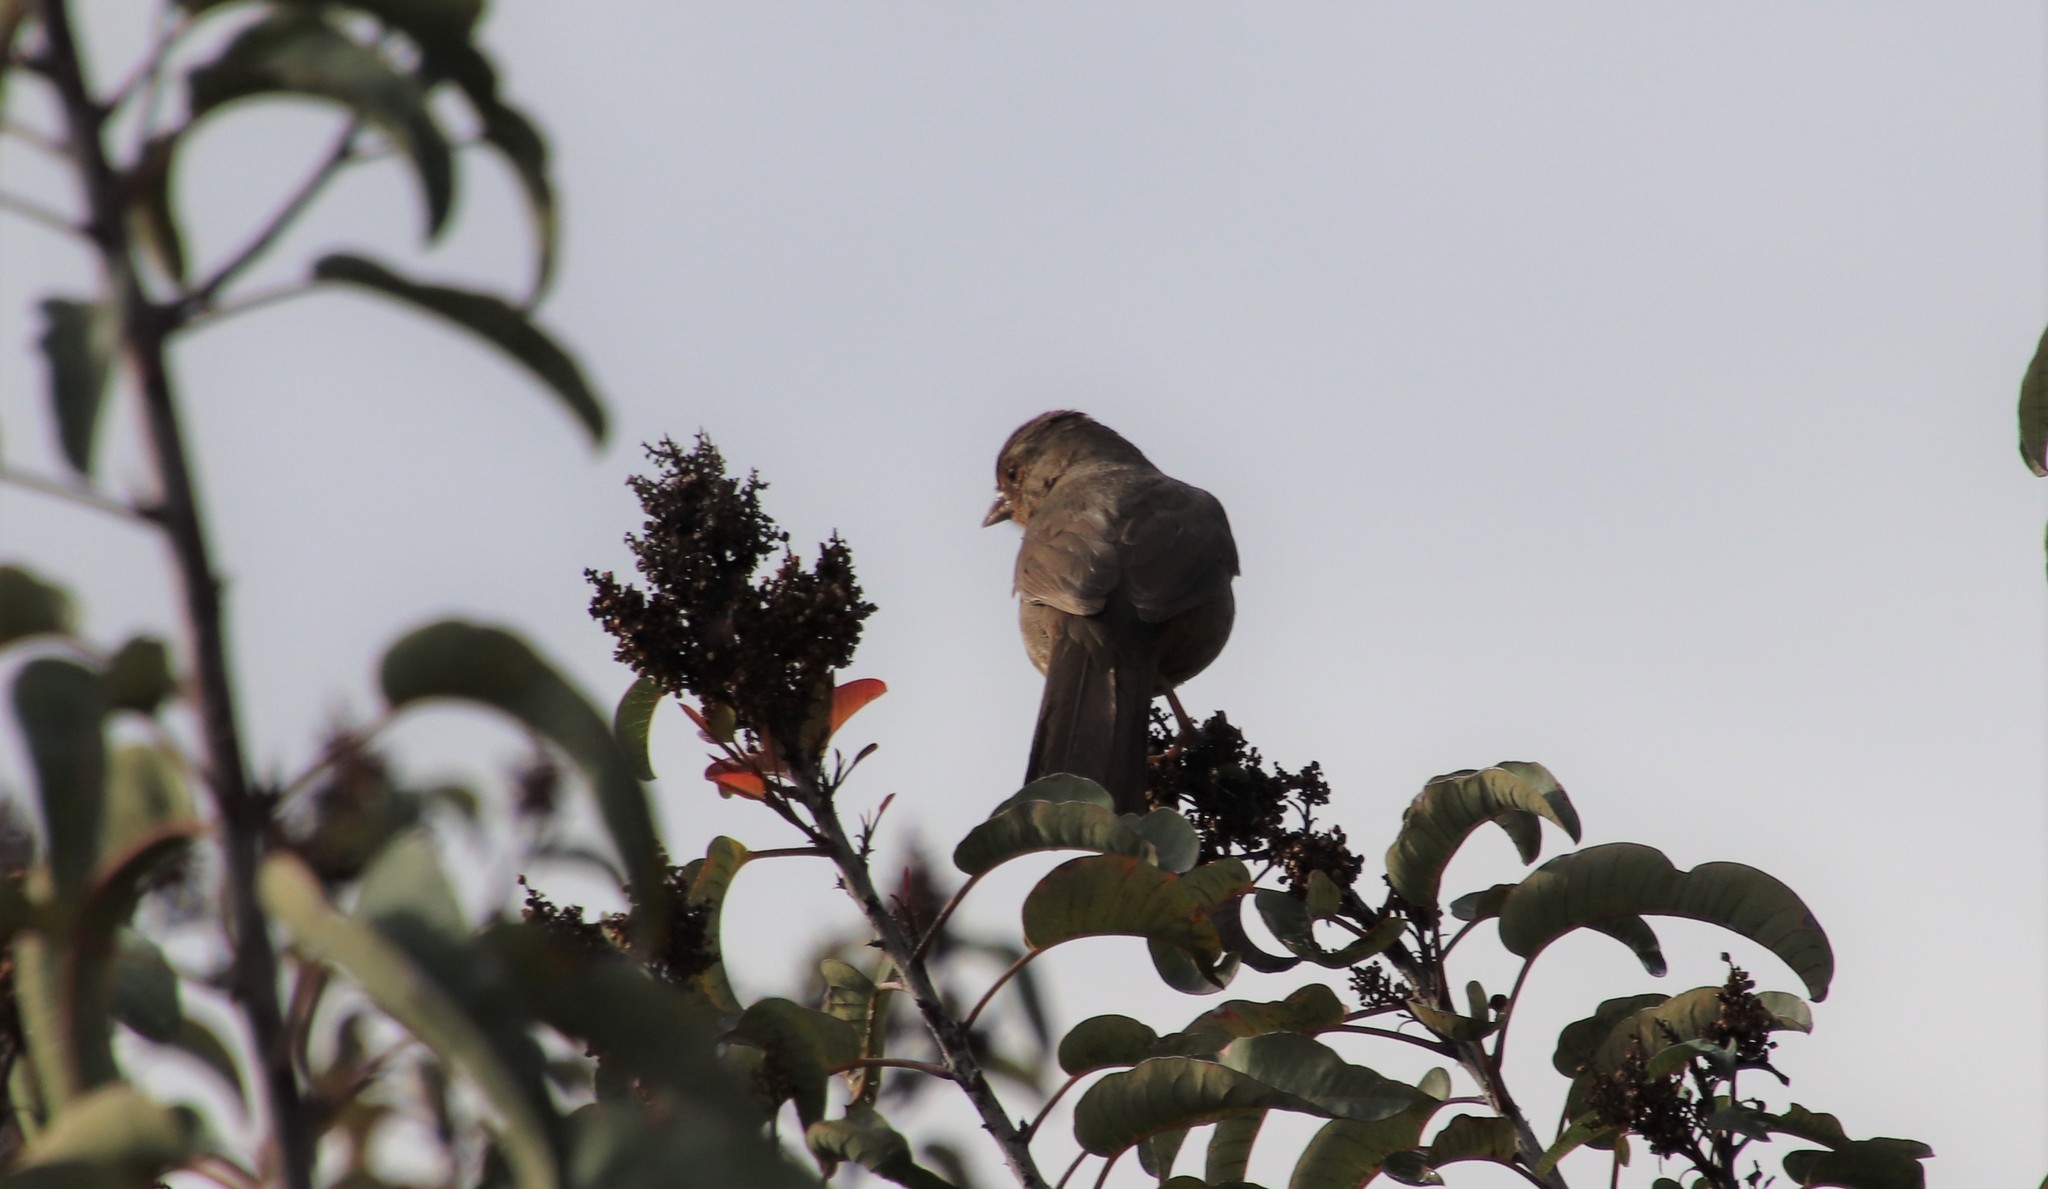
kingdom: Animalia
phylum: Chordata
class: Aves
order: Passeriformes
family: Passerellidae
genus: Melozone
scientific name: Melozone crissalis
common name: California towhee
